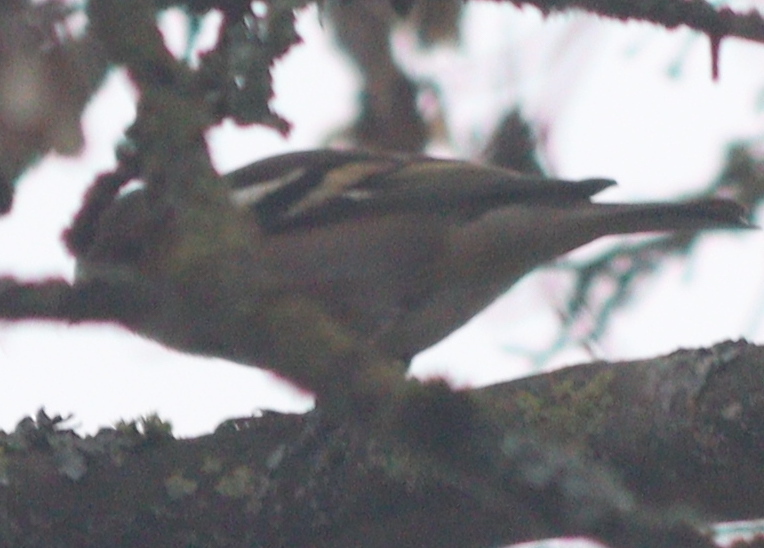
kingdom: Animalia
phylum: Chordata
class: Aves
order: Passeriformes
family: Fringillidae
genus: Fringilla
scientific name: Fringilla coelebs
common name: Common chaffinch
